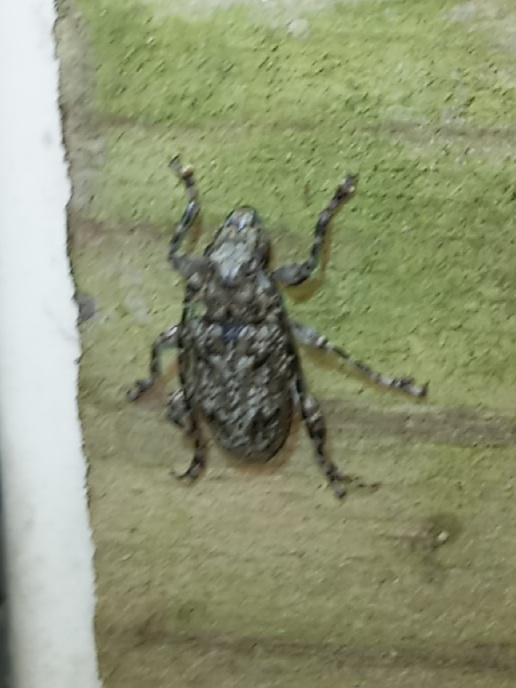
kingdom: Animalia
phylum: Arthropoda
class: Insecta
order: Coleoptera
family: Cerambycidae
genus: Aegomorphus
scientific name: Aegomorphus modestus
